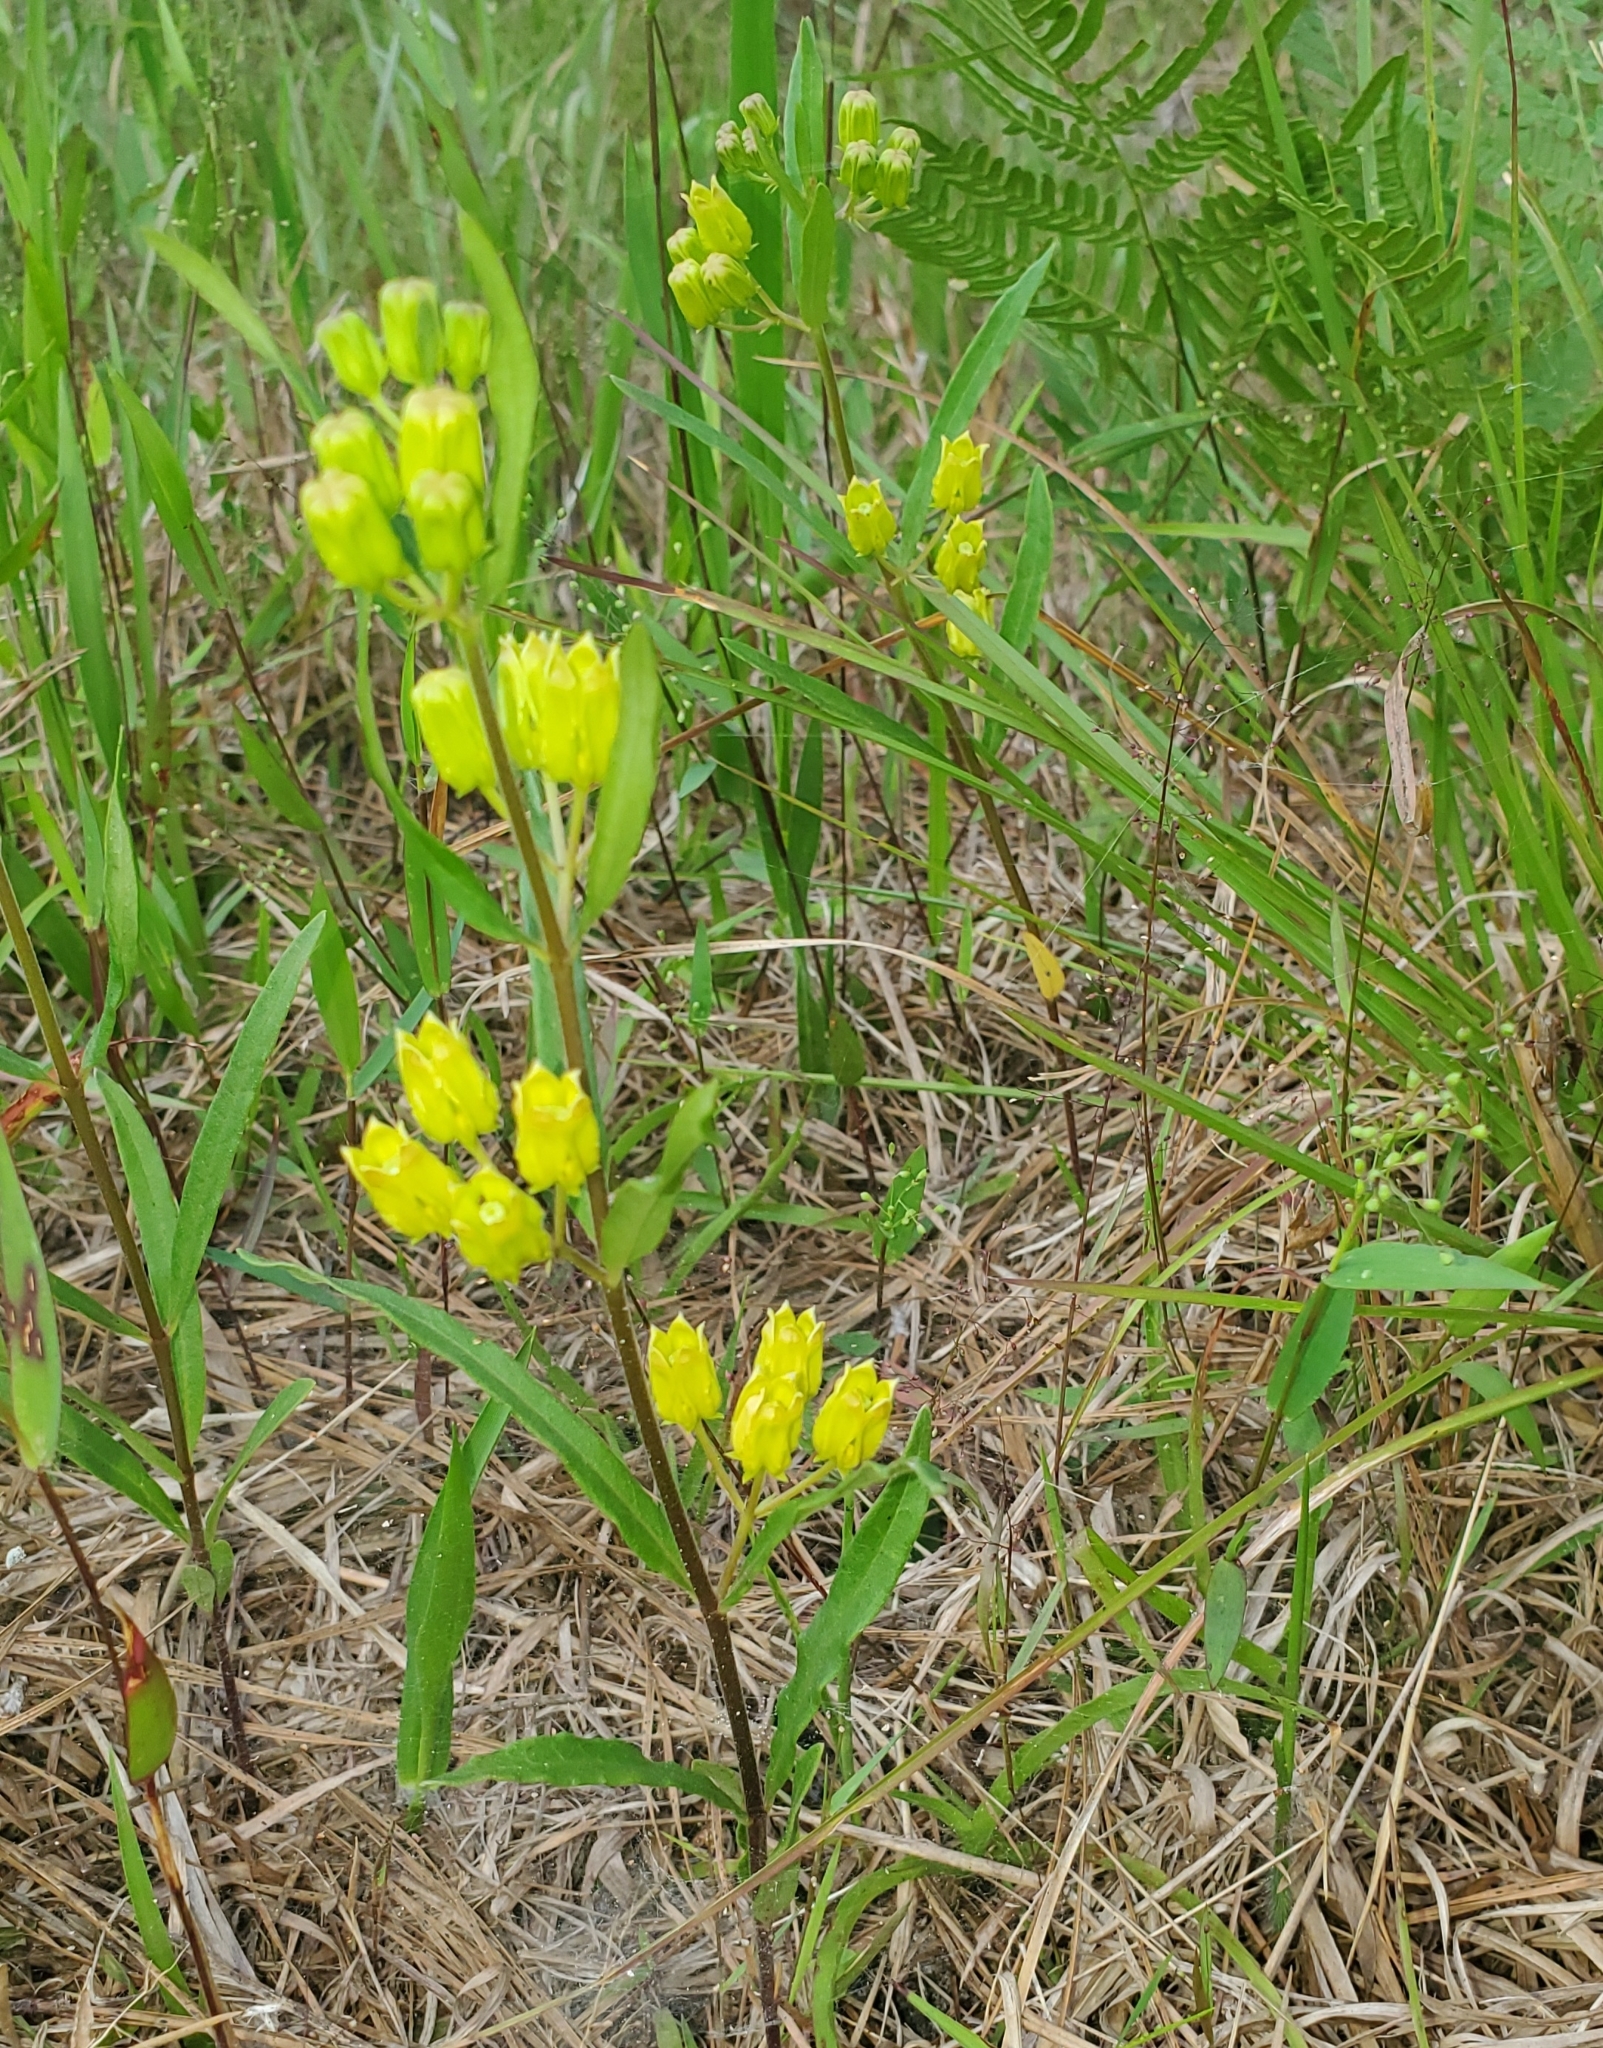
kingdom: Plantae
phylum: Tracheophyta
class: Magnoliopsida
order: Gentianales
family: Apocynaceae
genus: Asclepias
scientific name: Asclepias pedicellata
